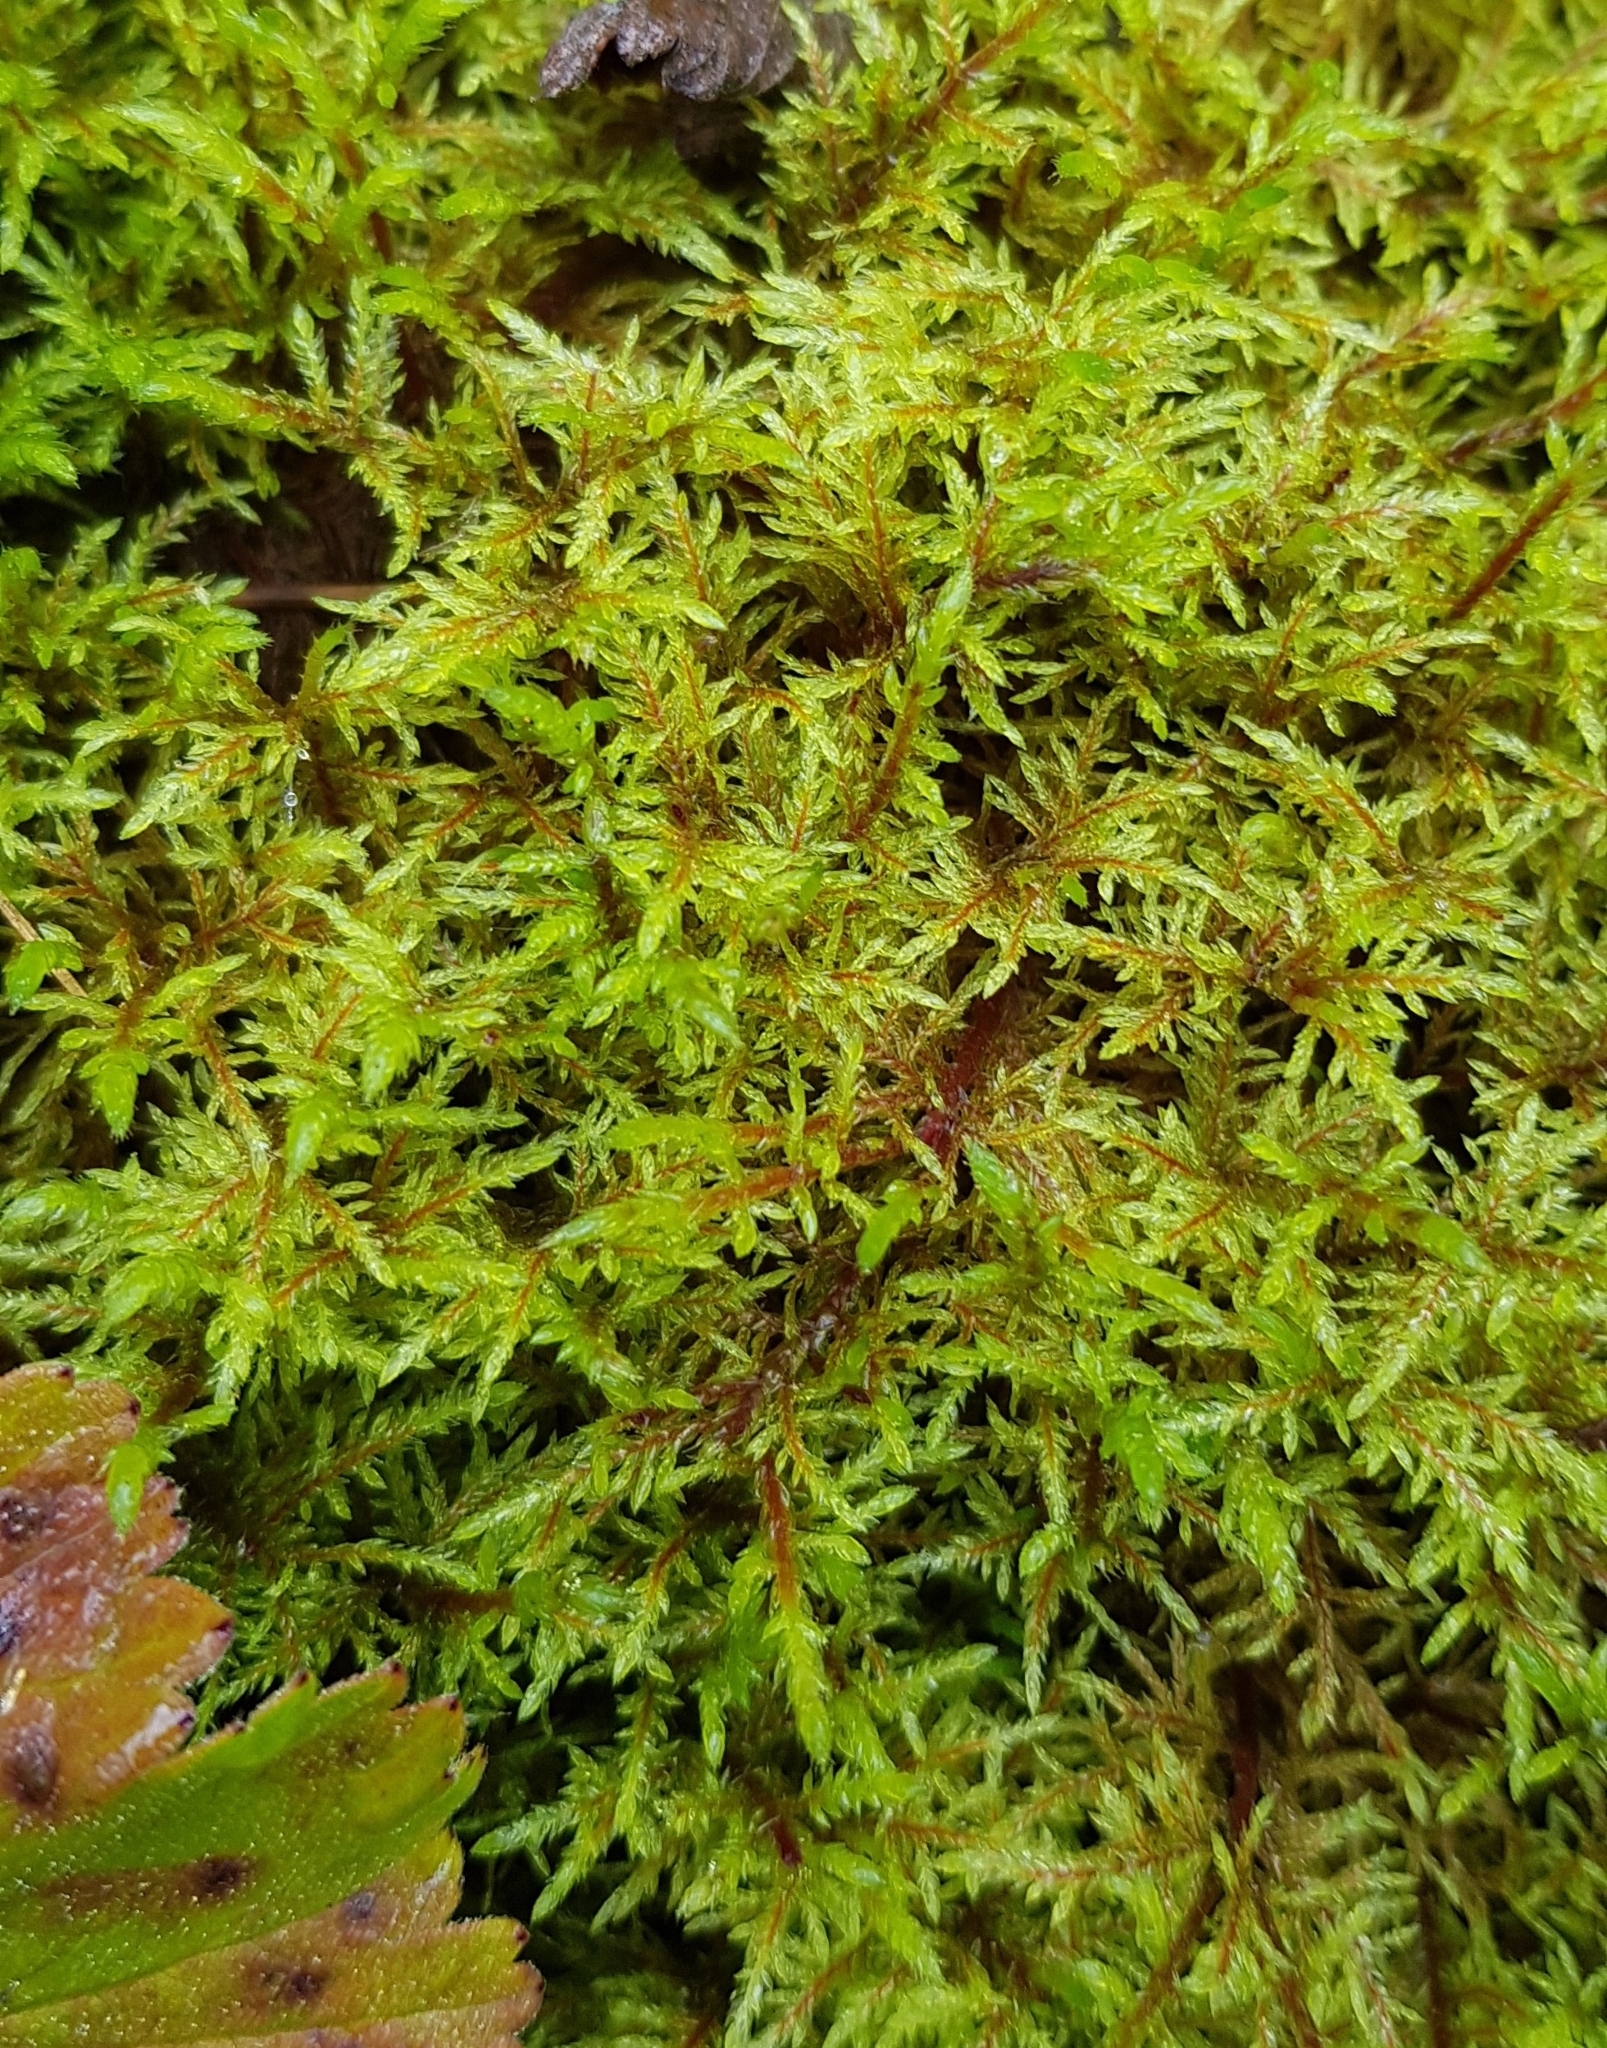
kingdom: Plantae
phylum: Bryophyta
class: Bryopsida
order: Hypnales
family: Hylocomiaceae
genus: Hylocomium
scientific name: Hylocomium splendens
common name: Stairstep moss
